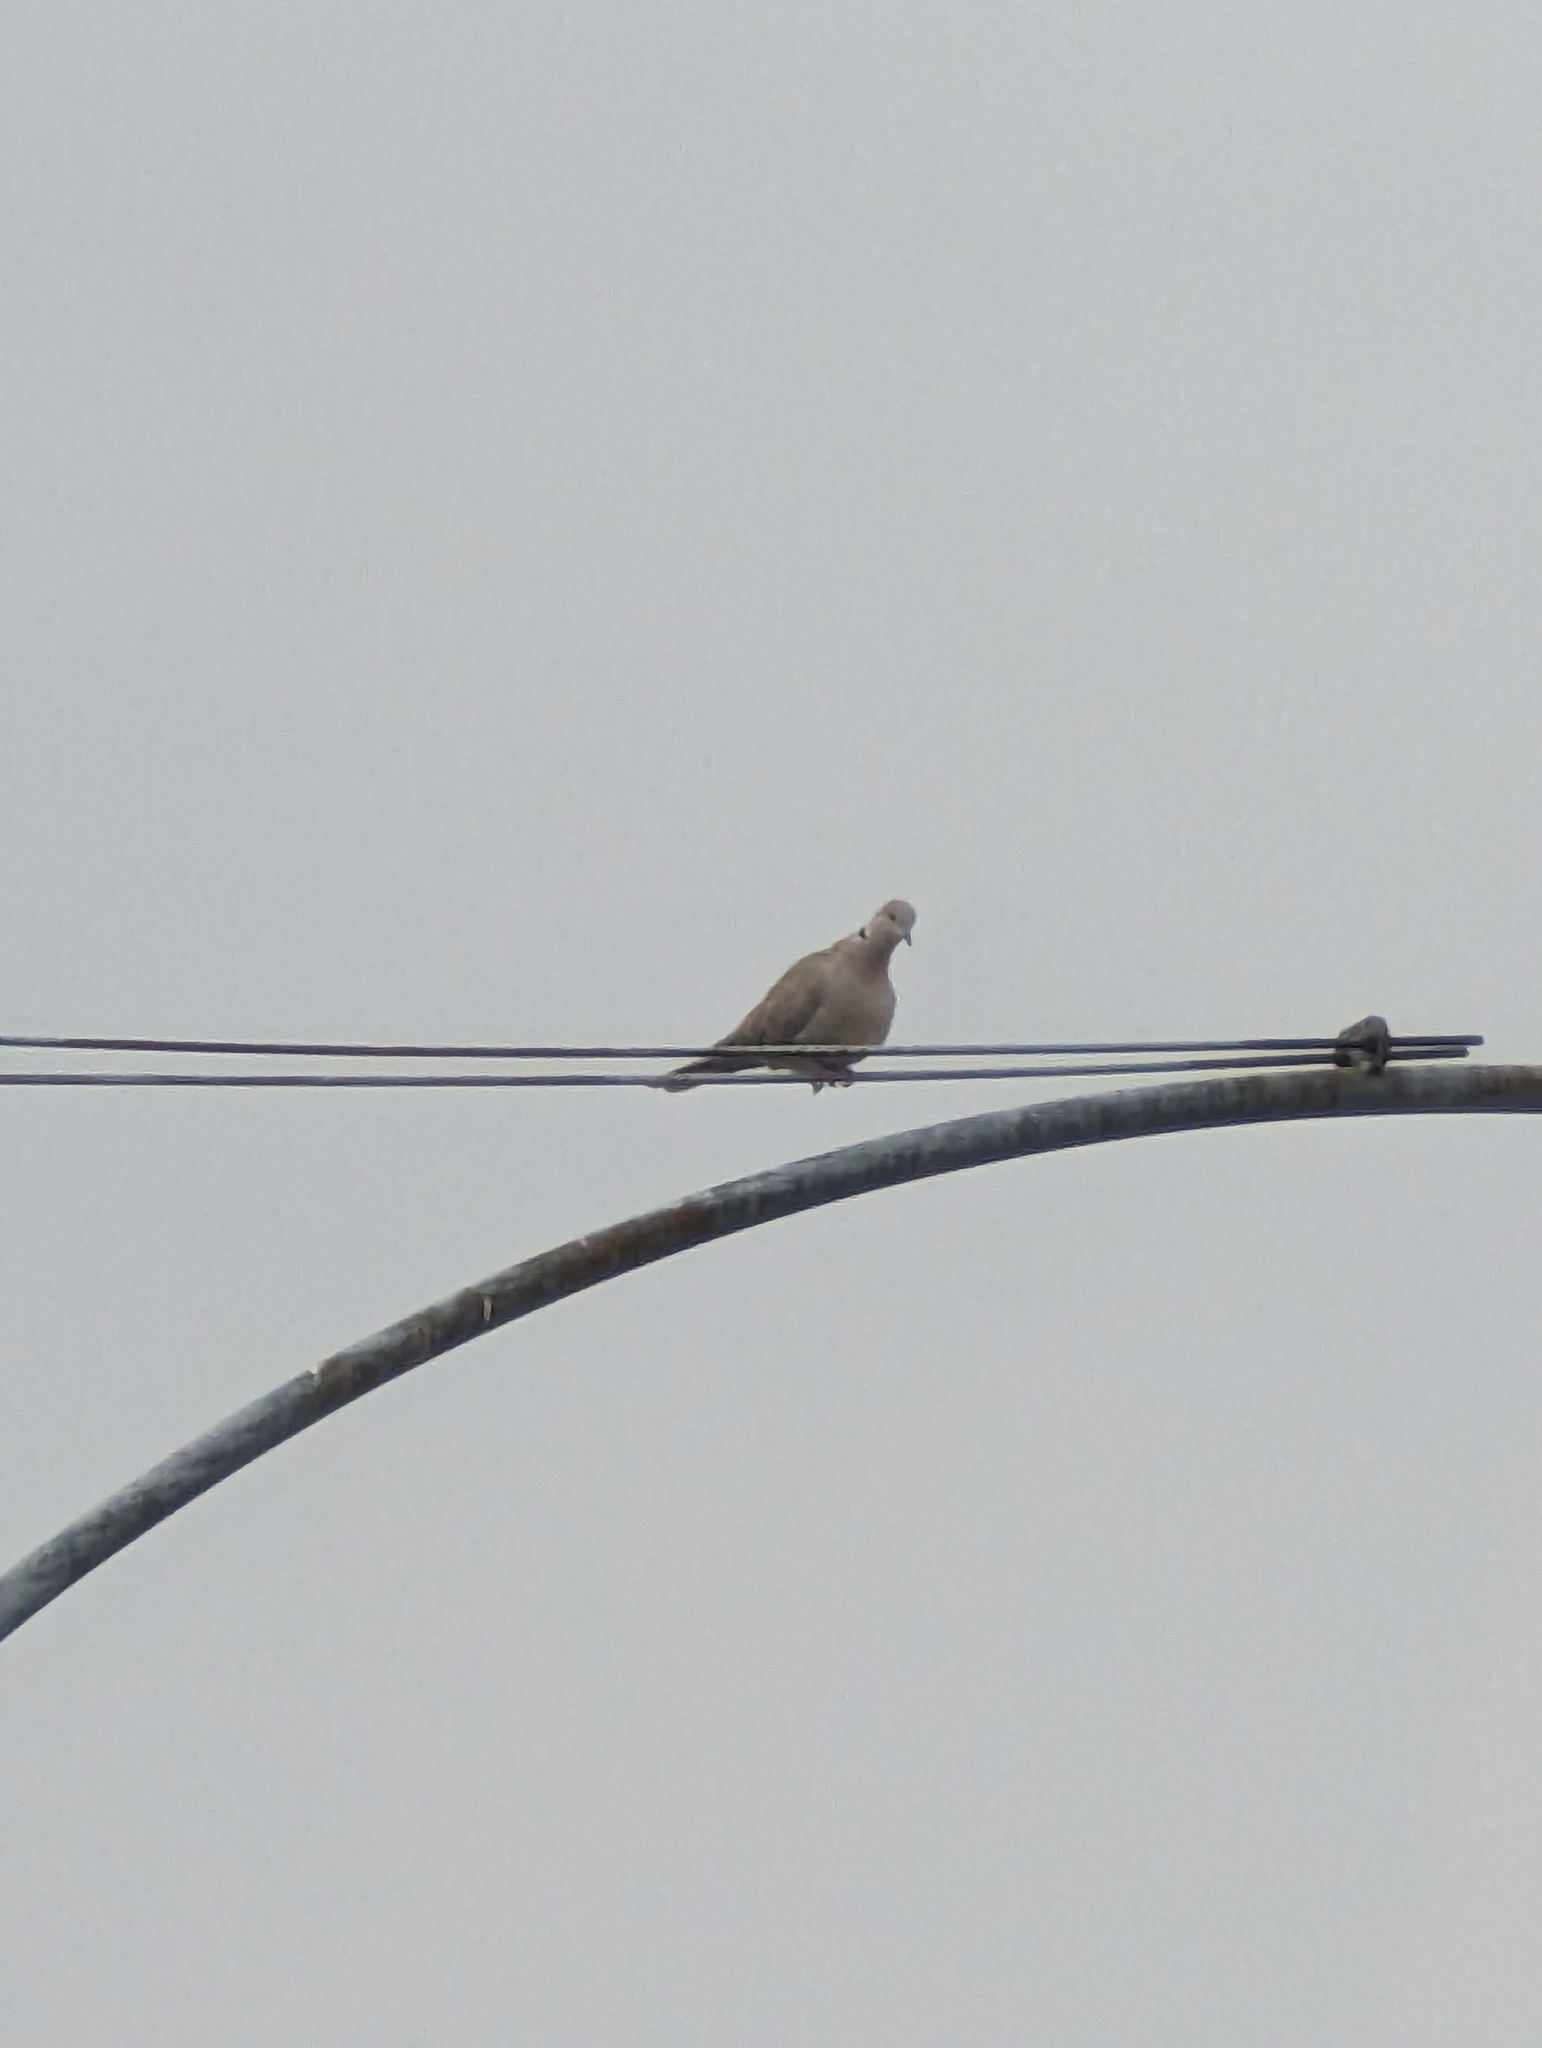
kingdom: Animalia
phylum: Chordata
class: Aves
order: Columbiformes
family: Columbidae
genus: Streptopelia
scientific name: Streptopelia decaocto
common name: Eurasian collared dove
